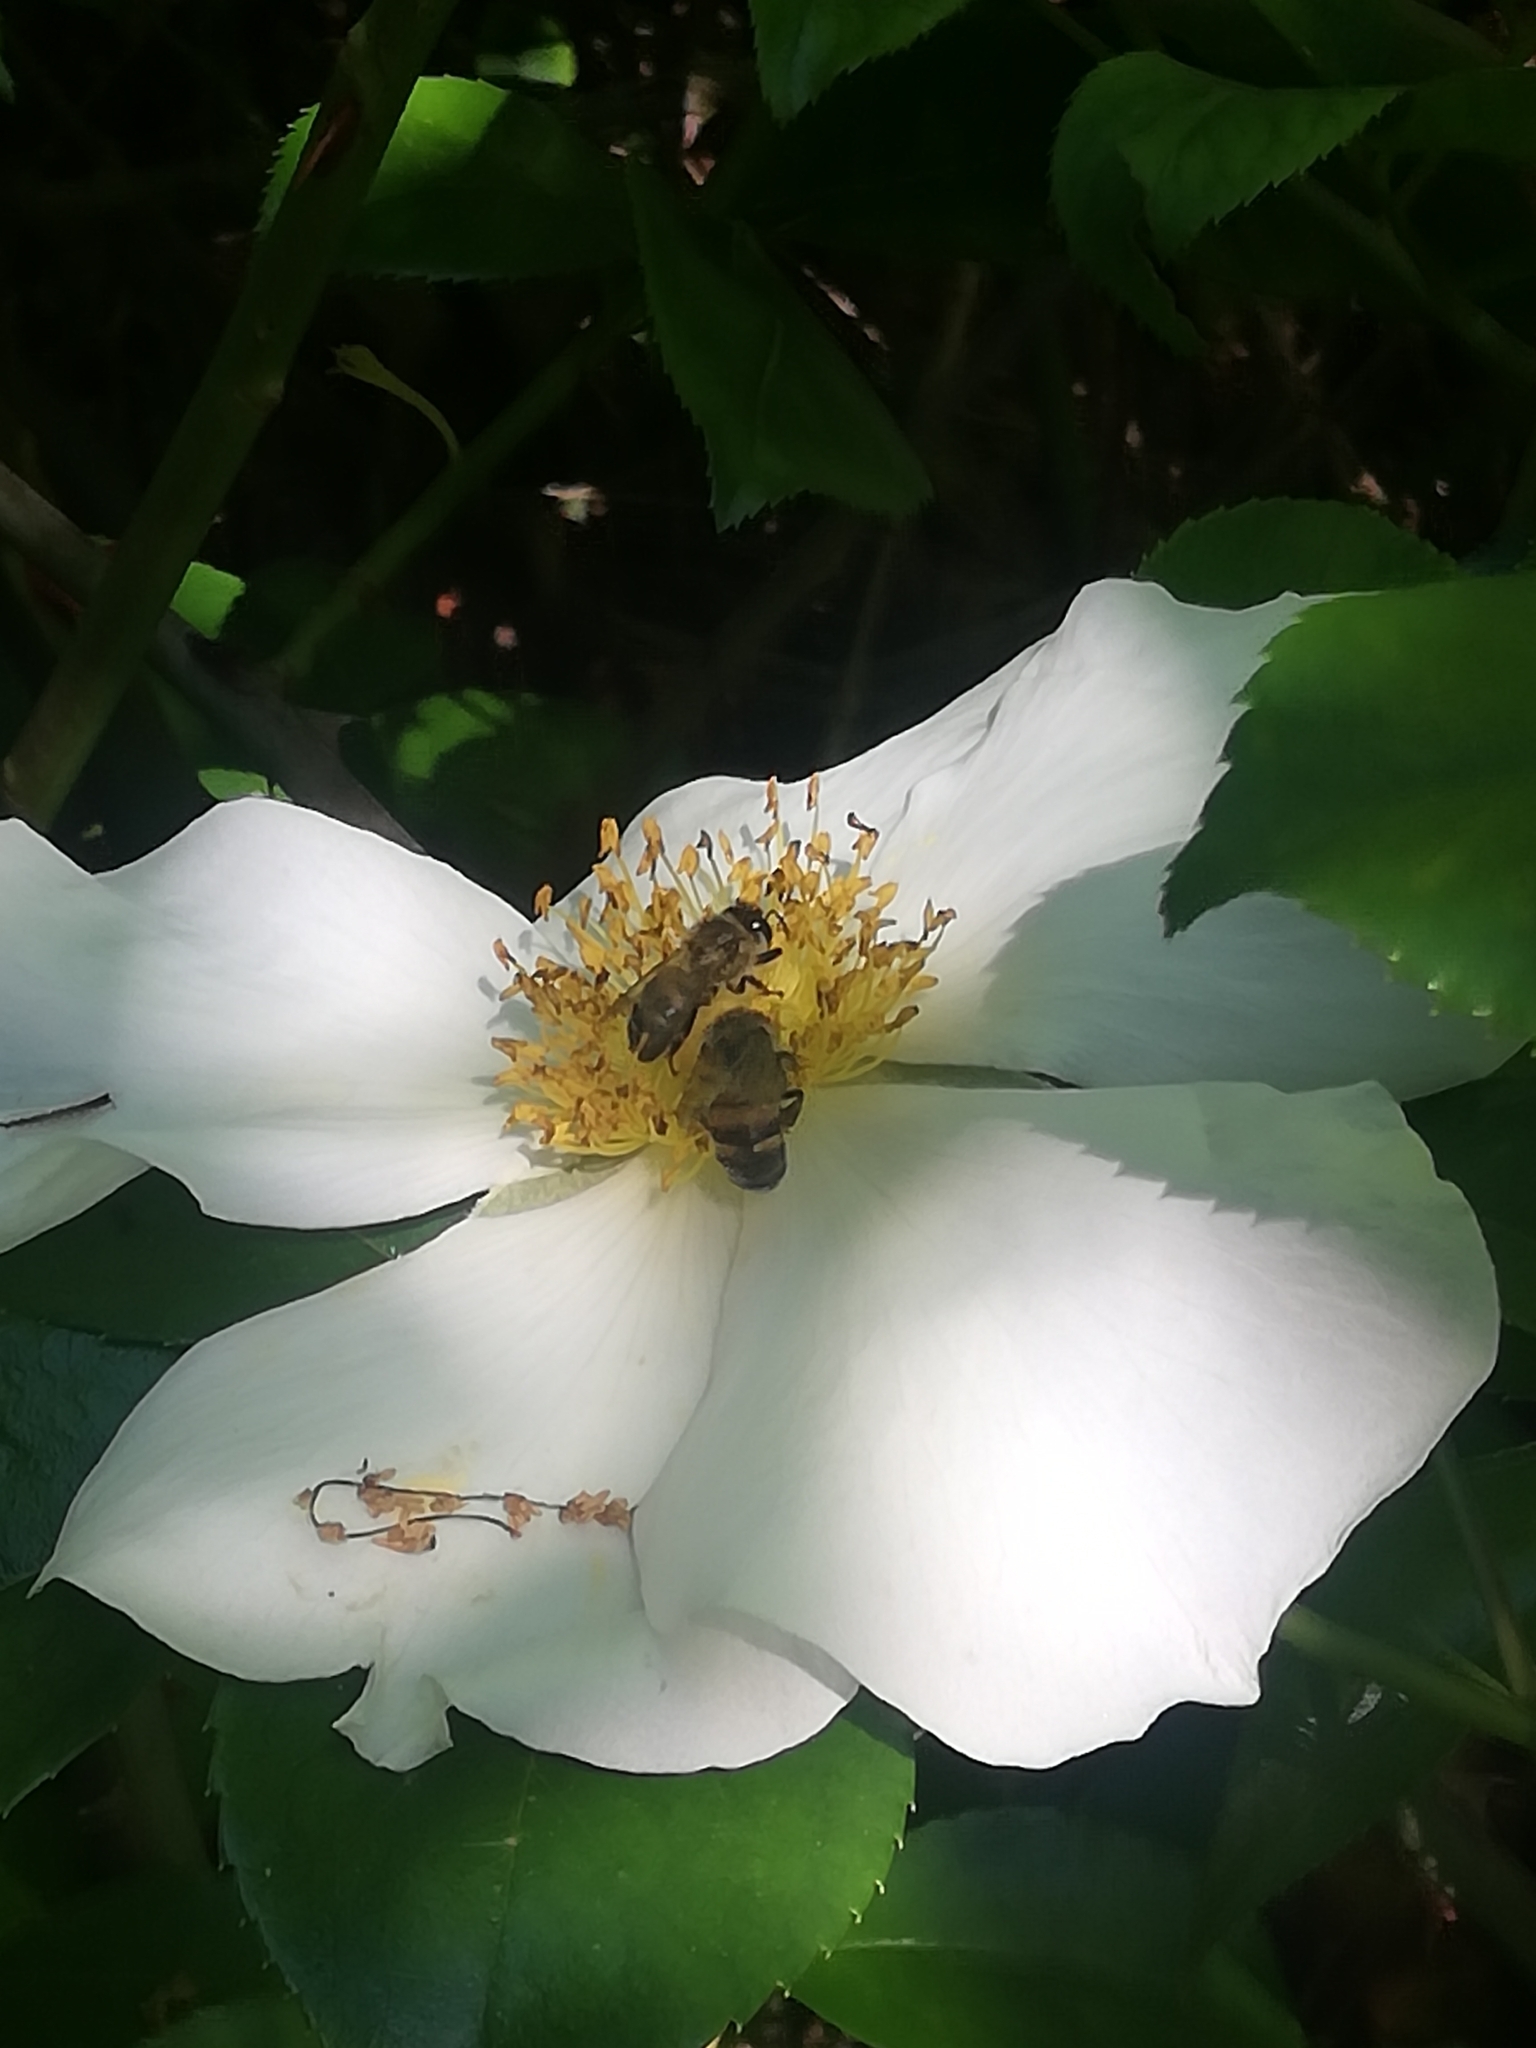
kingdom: Animalia
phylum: Arthropoda
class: Insecta
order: Hymenoptera
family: Apidae
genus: Apis
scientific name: Apis mellifera
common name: Honey bee
